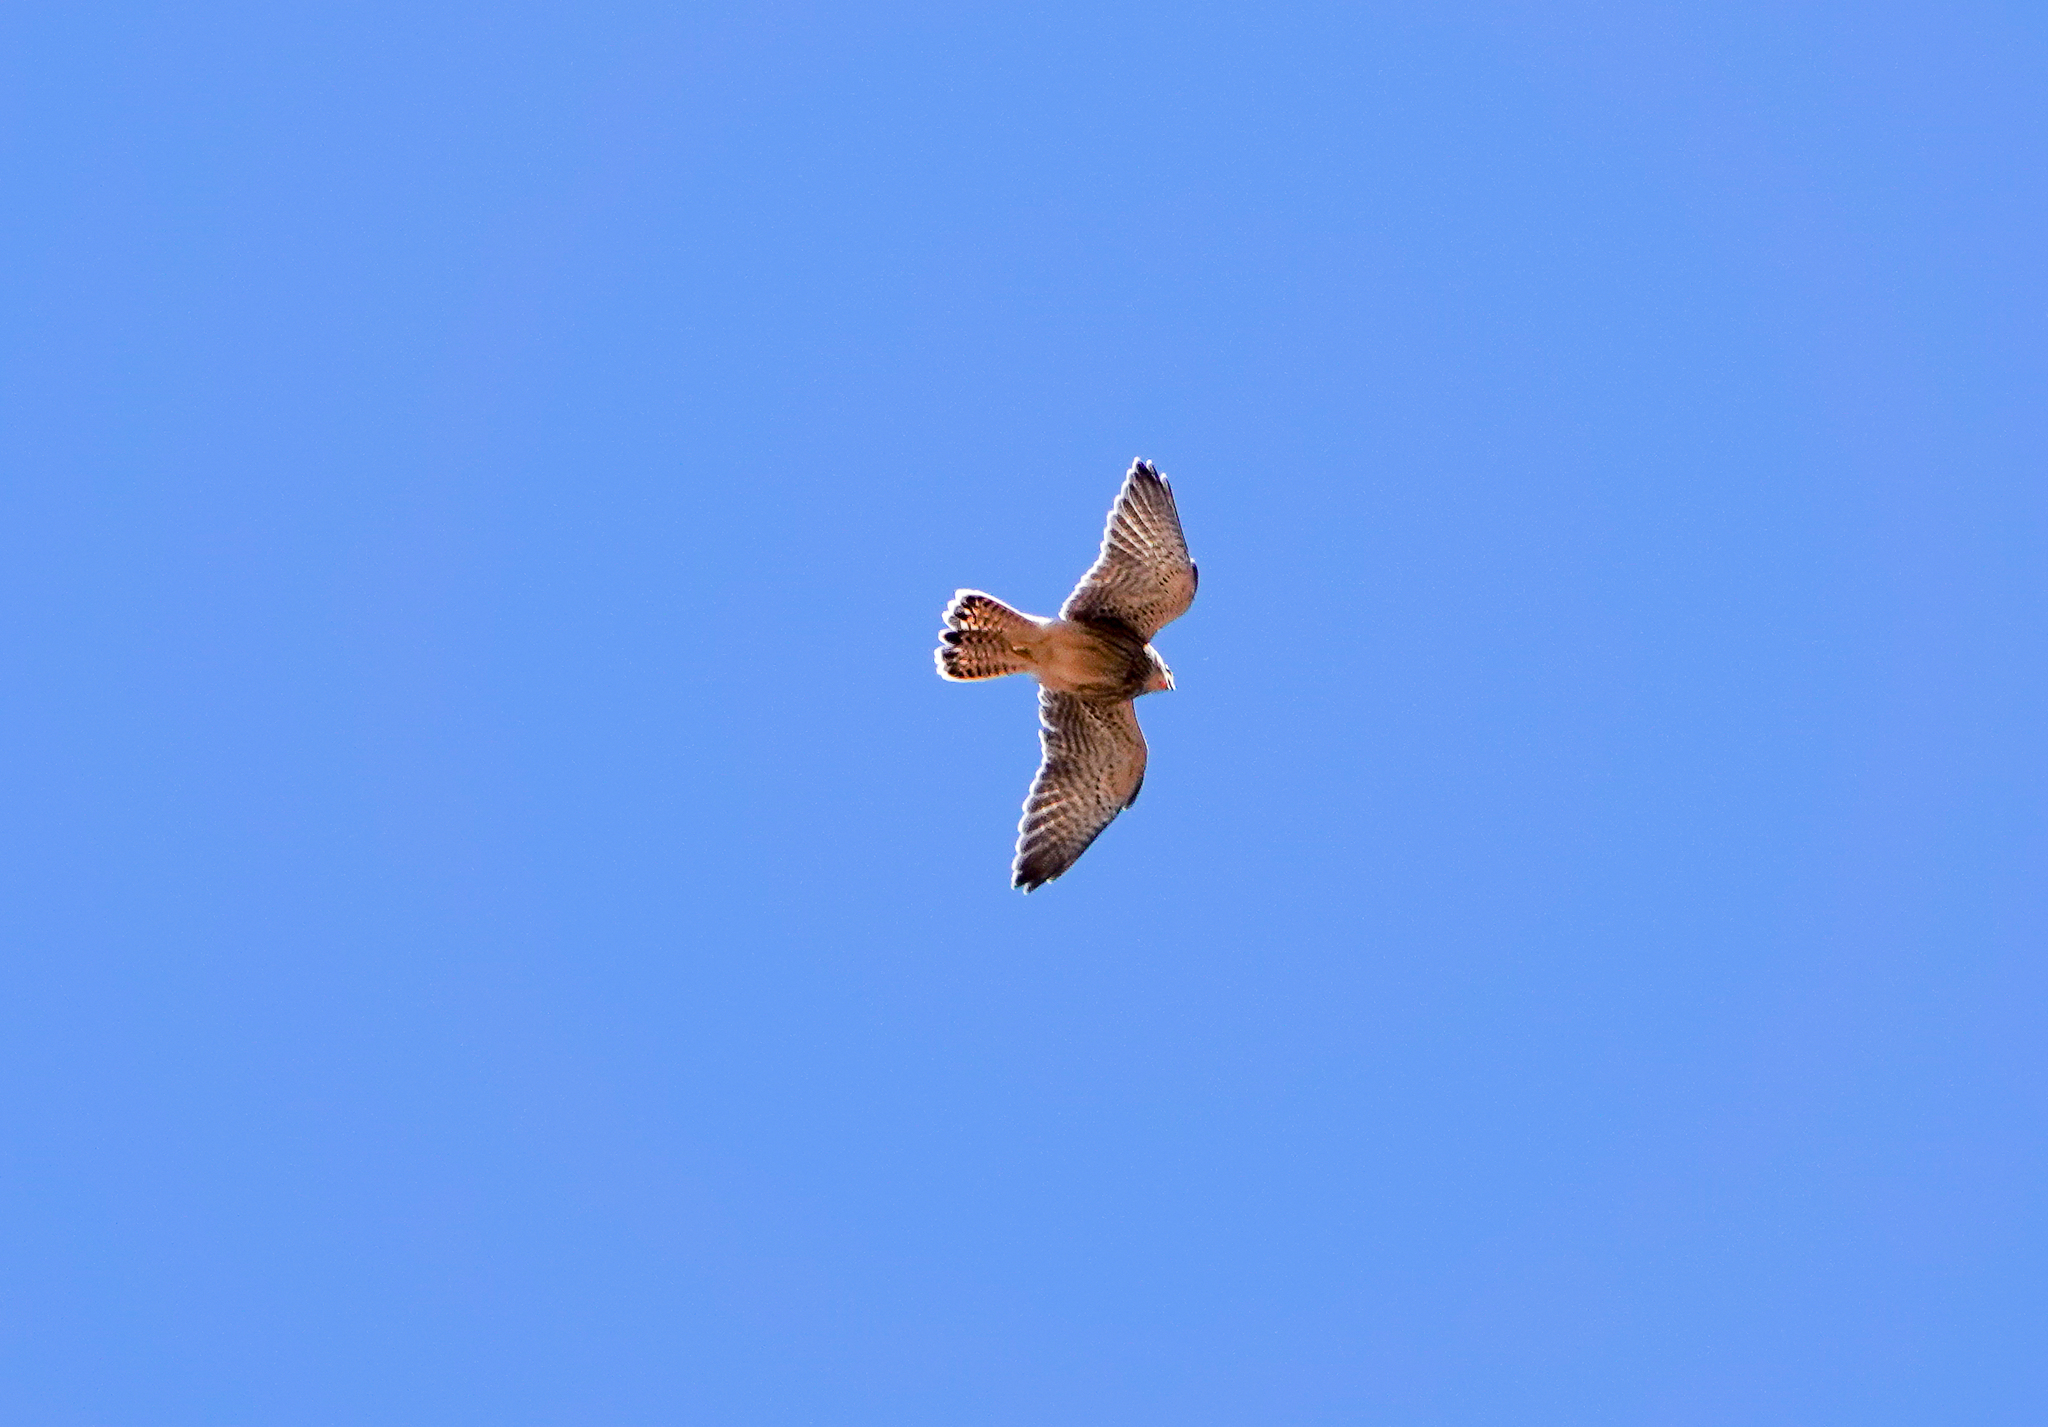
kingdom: Animalia
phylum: Chordata
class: Aves
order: Falconiformes
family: Falconidae
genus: Falco
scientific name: Falco tinnunculus
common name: Common kestrel
